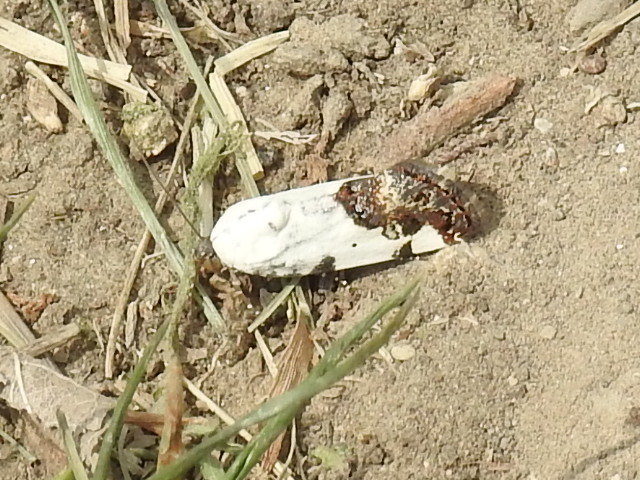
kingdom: Animalia
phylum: Arthropoda
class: Insecta
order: Lepidoptera
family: Noctuidae
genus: Acontia
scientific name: Acontia aprica
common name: Nun
